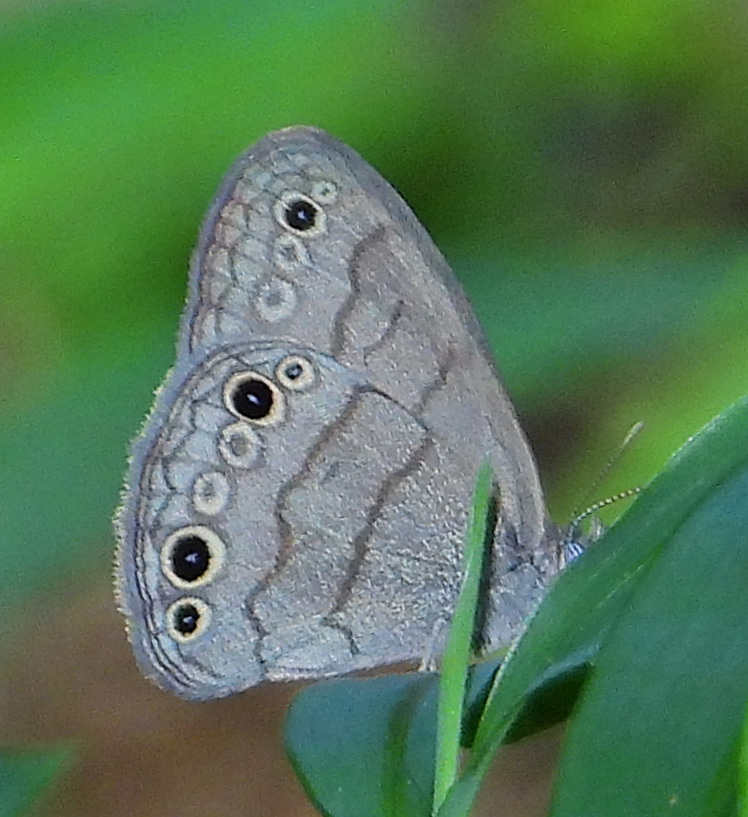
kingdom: Animalia
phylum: Arthropoda
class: Insecta
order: Lepidoptera
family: Nymphalidae
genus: Hermeuptychia
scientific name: Hermeuptychia intricata
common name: Intricate satyr
